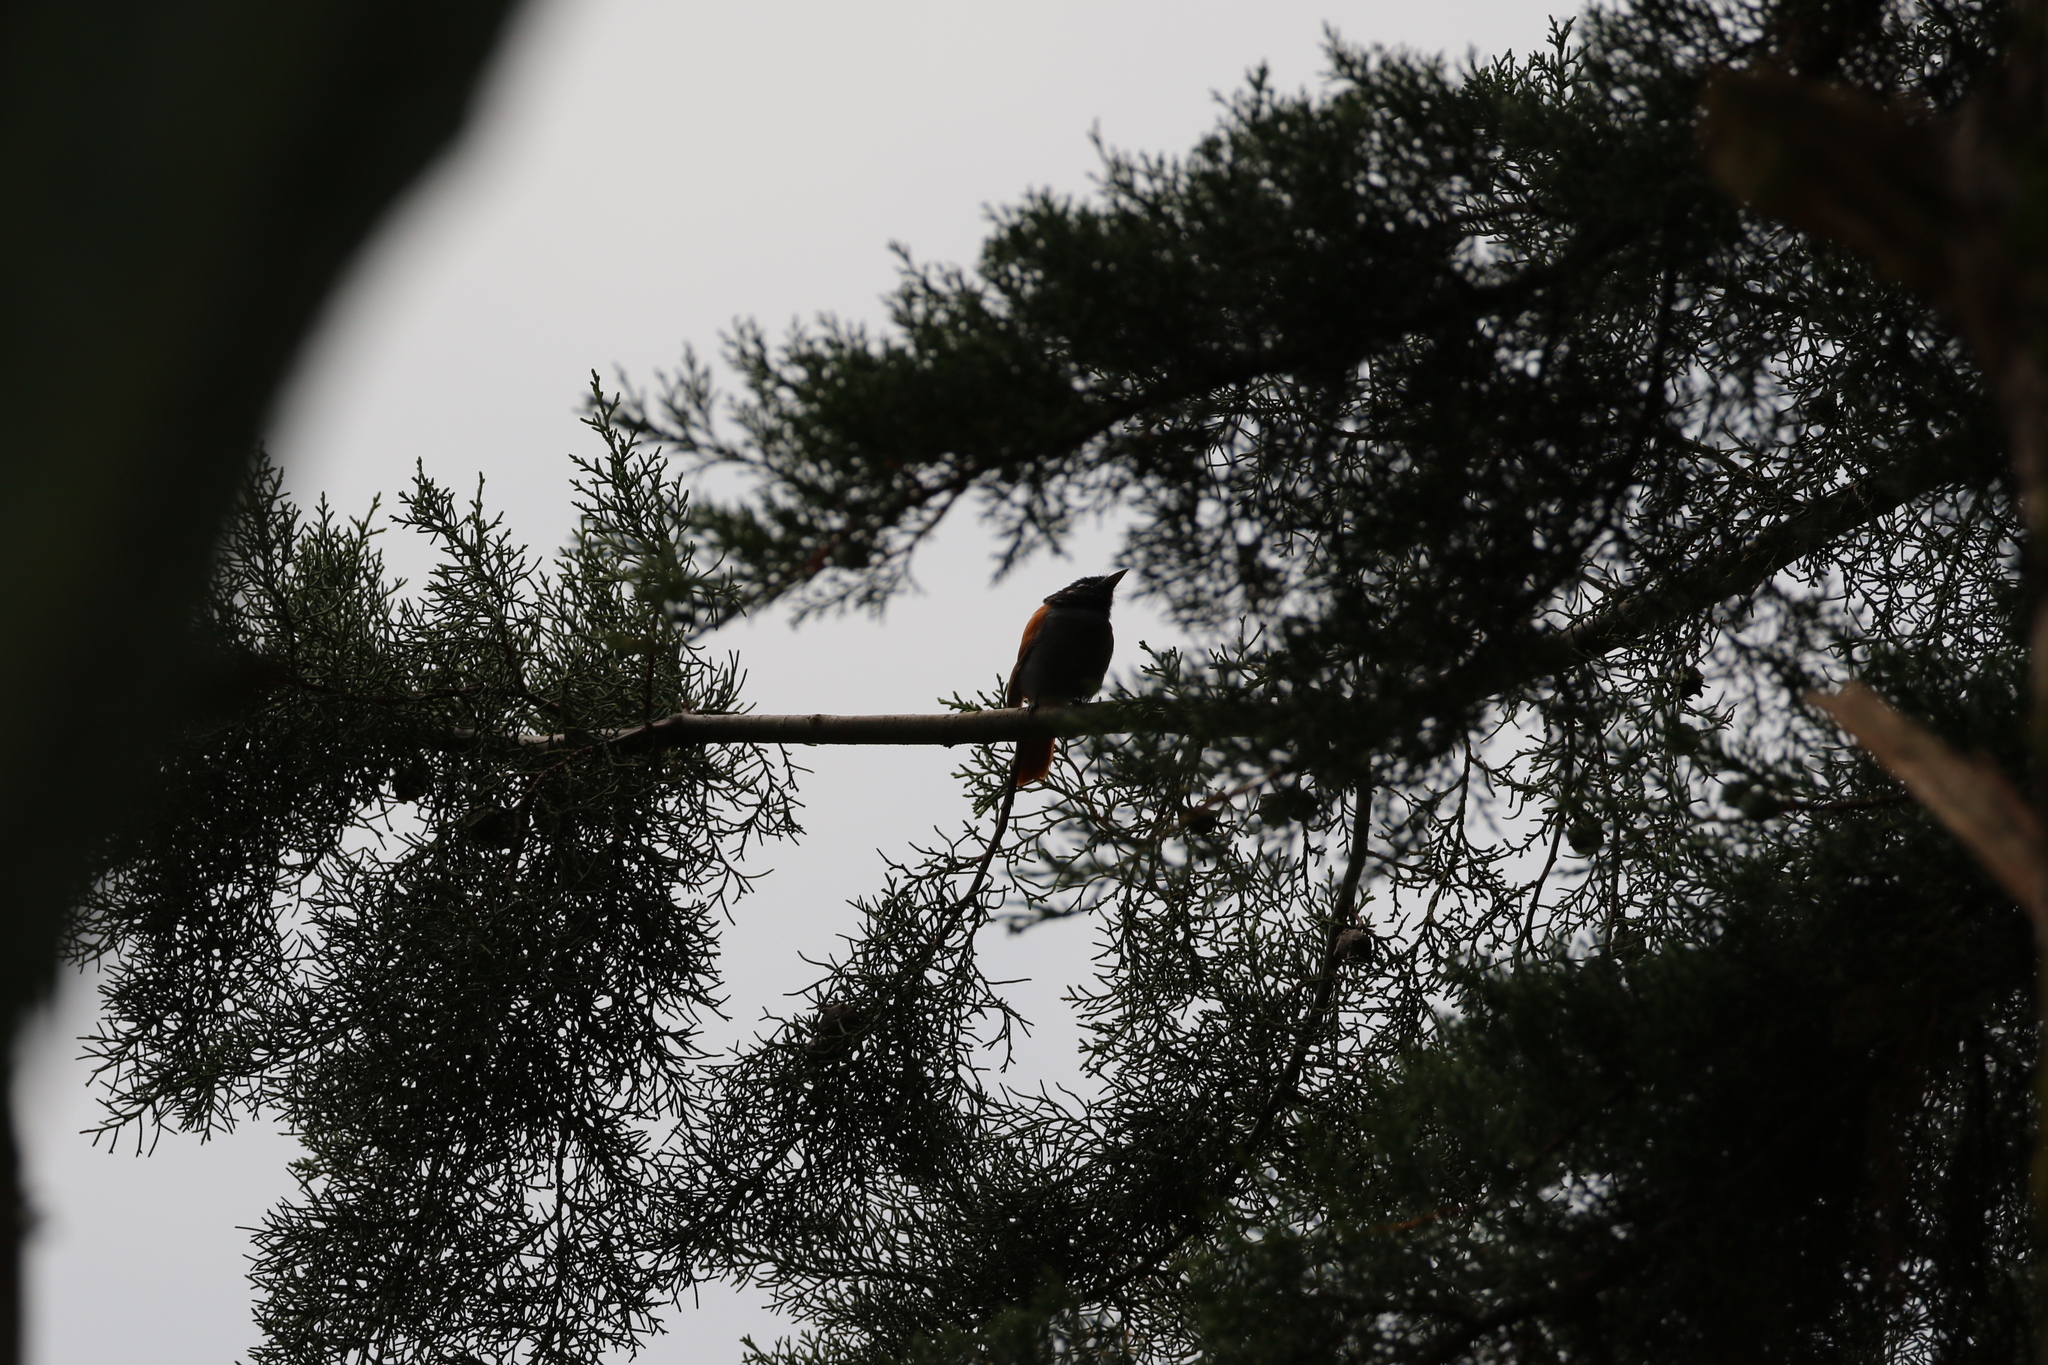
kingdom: Animalia
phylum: Chordata
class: Aves
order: Passeriformes
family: Monarchidae
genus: Terpsiphone
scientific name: Terpsiphone viridis
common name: African paradise flycatcher
